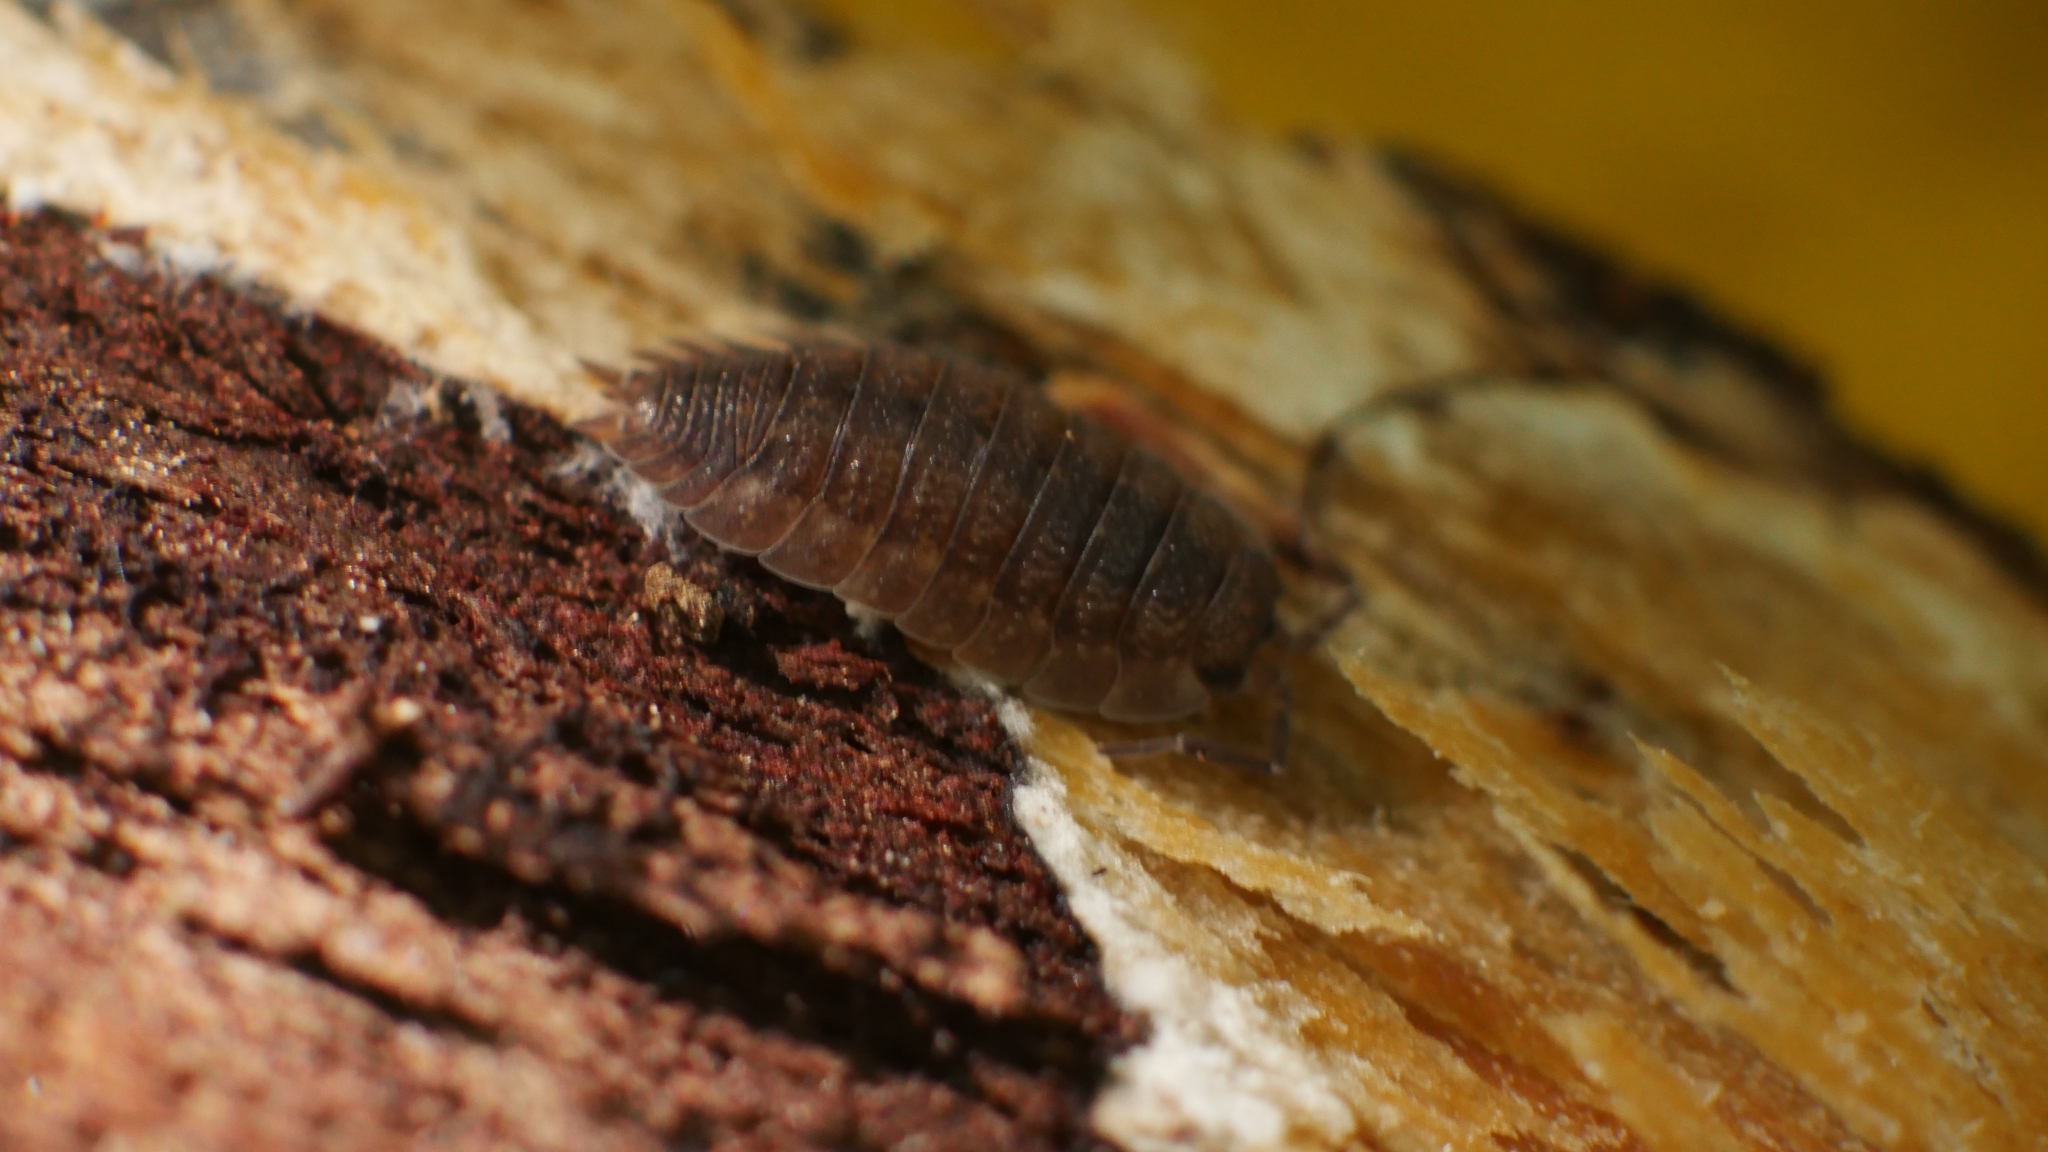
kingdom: Animalia
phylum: Arthropoda
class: Malacostraca
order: Isopoda
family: Porcellionidae
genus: Porcellio
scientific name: Porcellio scaber
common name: Common rough woodlouse
